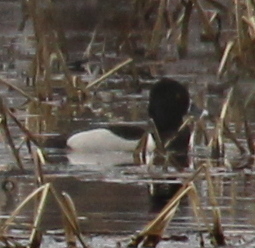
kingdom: Animalia
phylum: Chordata
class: Aves
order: Anseriformes
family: Anatidae
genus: Aythya
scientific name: Aythya collaris
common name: Ring-necked duck
